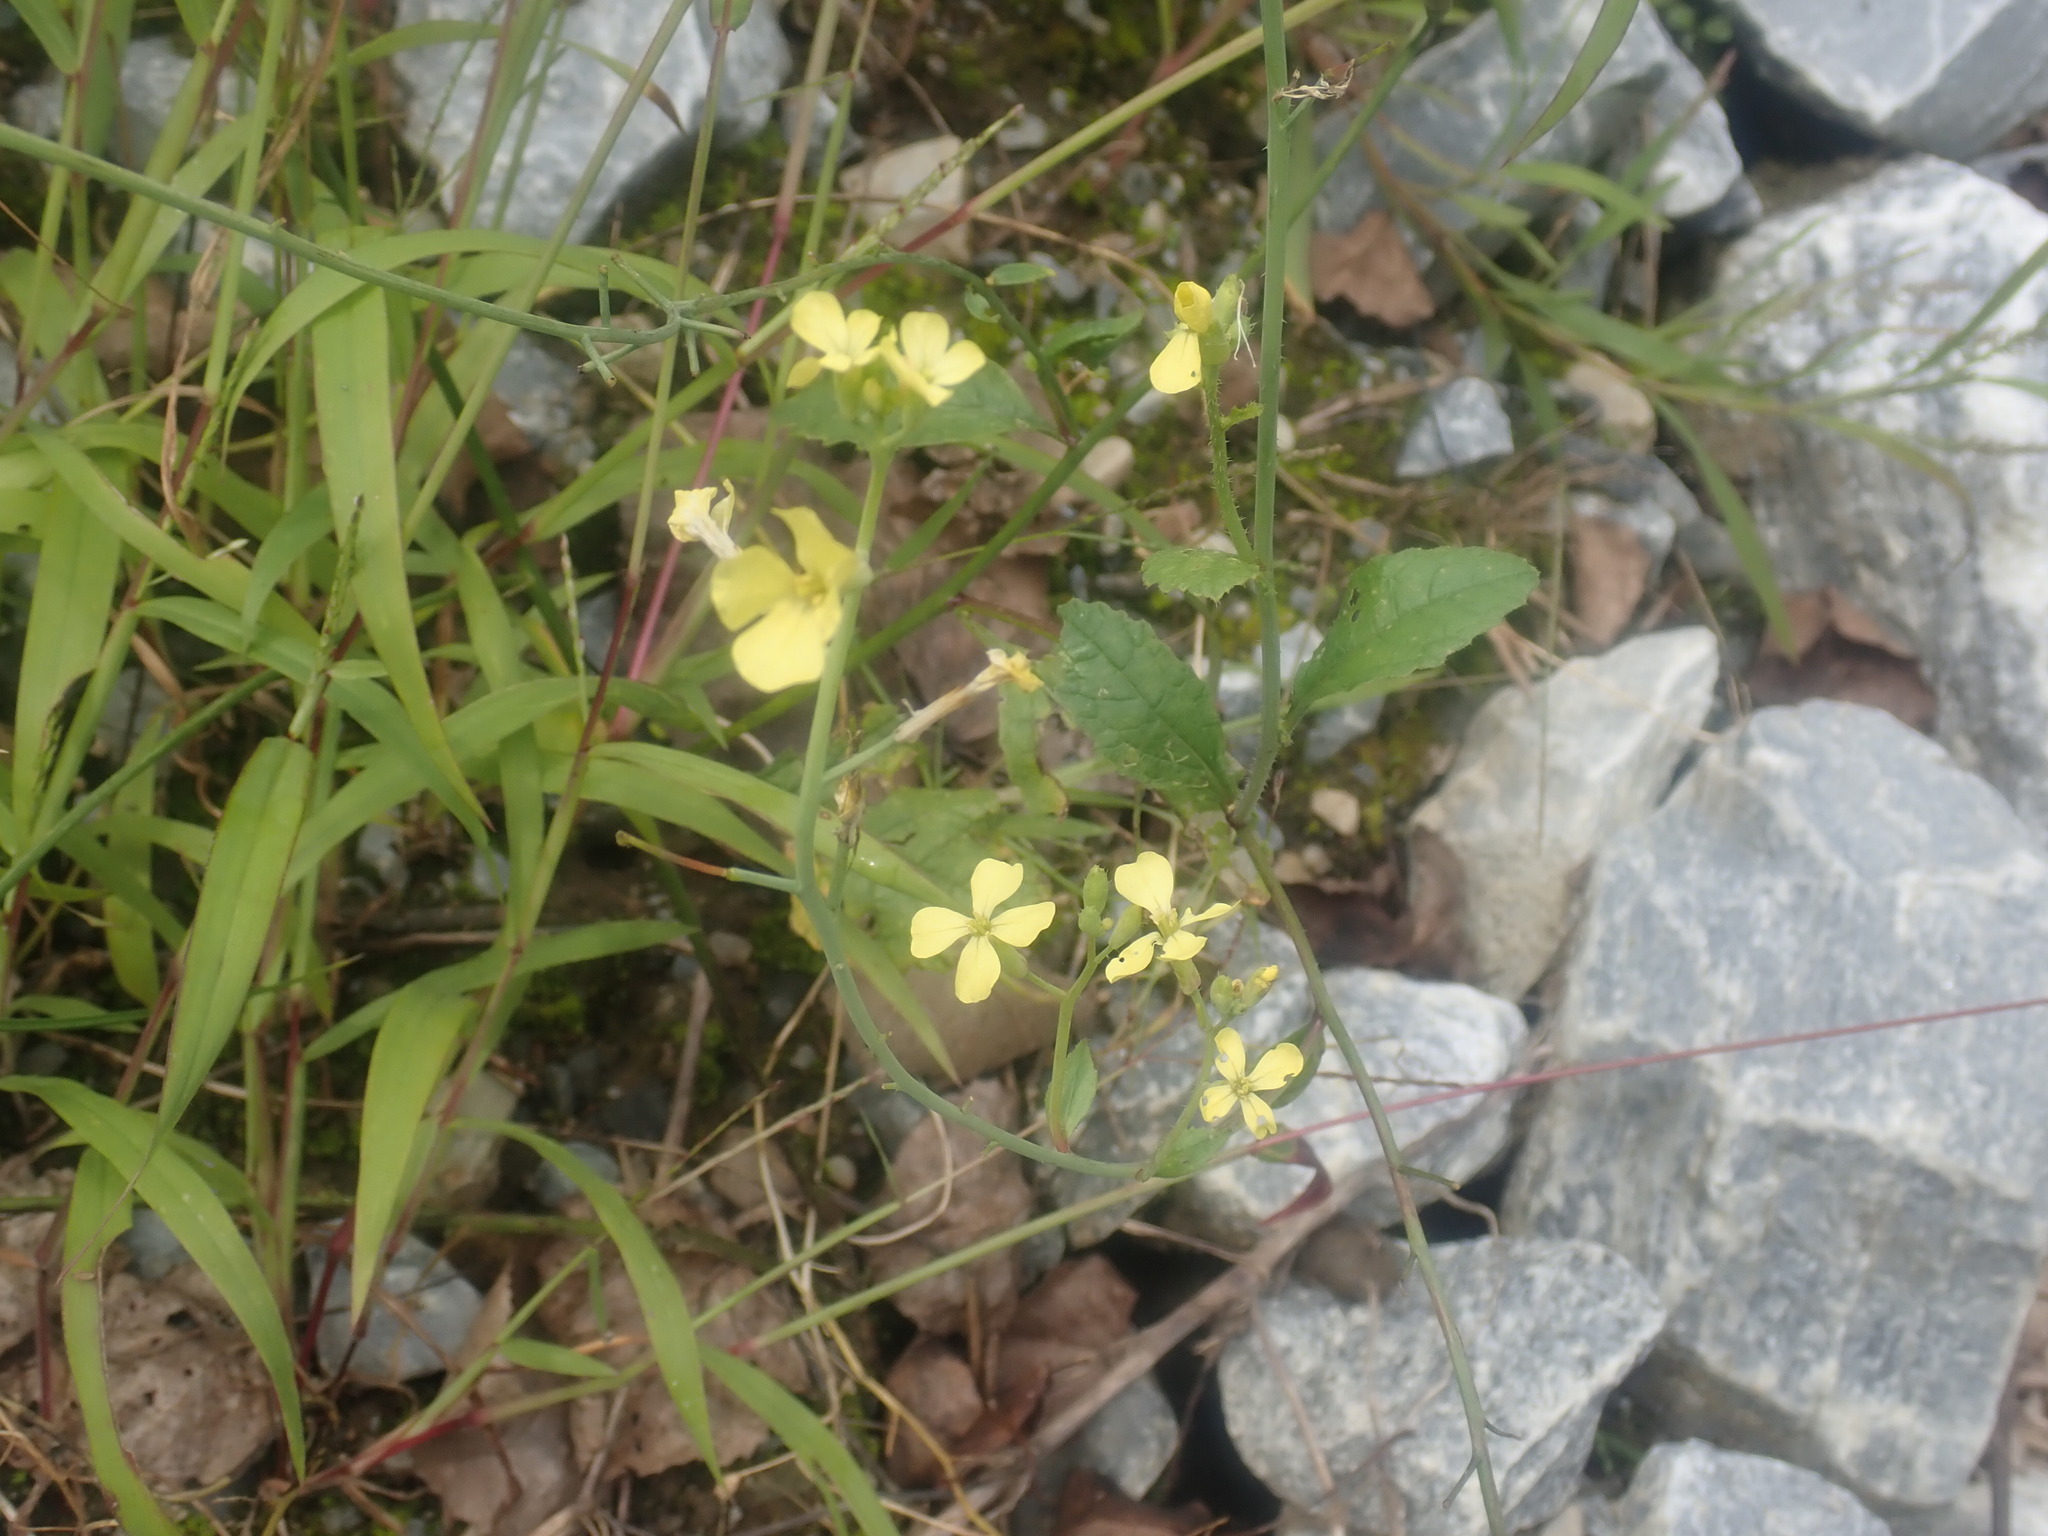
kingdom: Plantae
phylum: Tracheophyta
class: Magnoliopsida
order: Brassicales
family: Brassicaceae
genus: Raphanus
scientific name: Raphanus raphanistrum
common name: Wild radish
